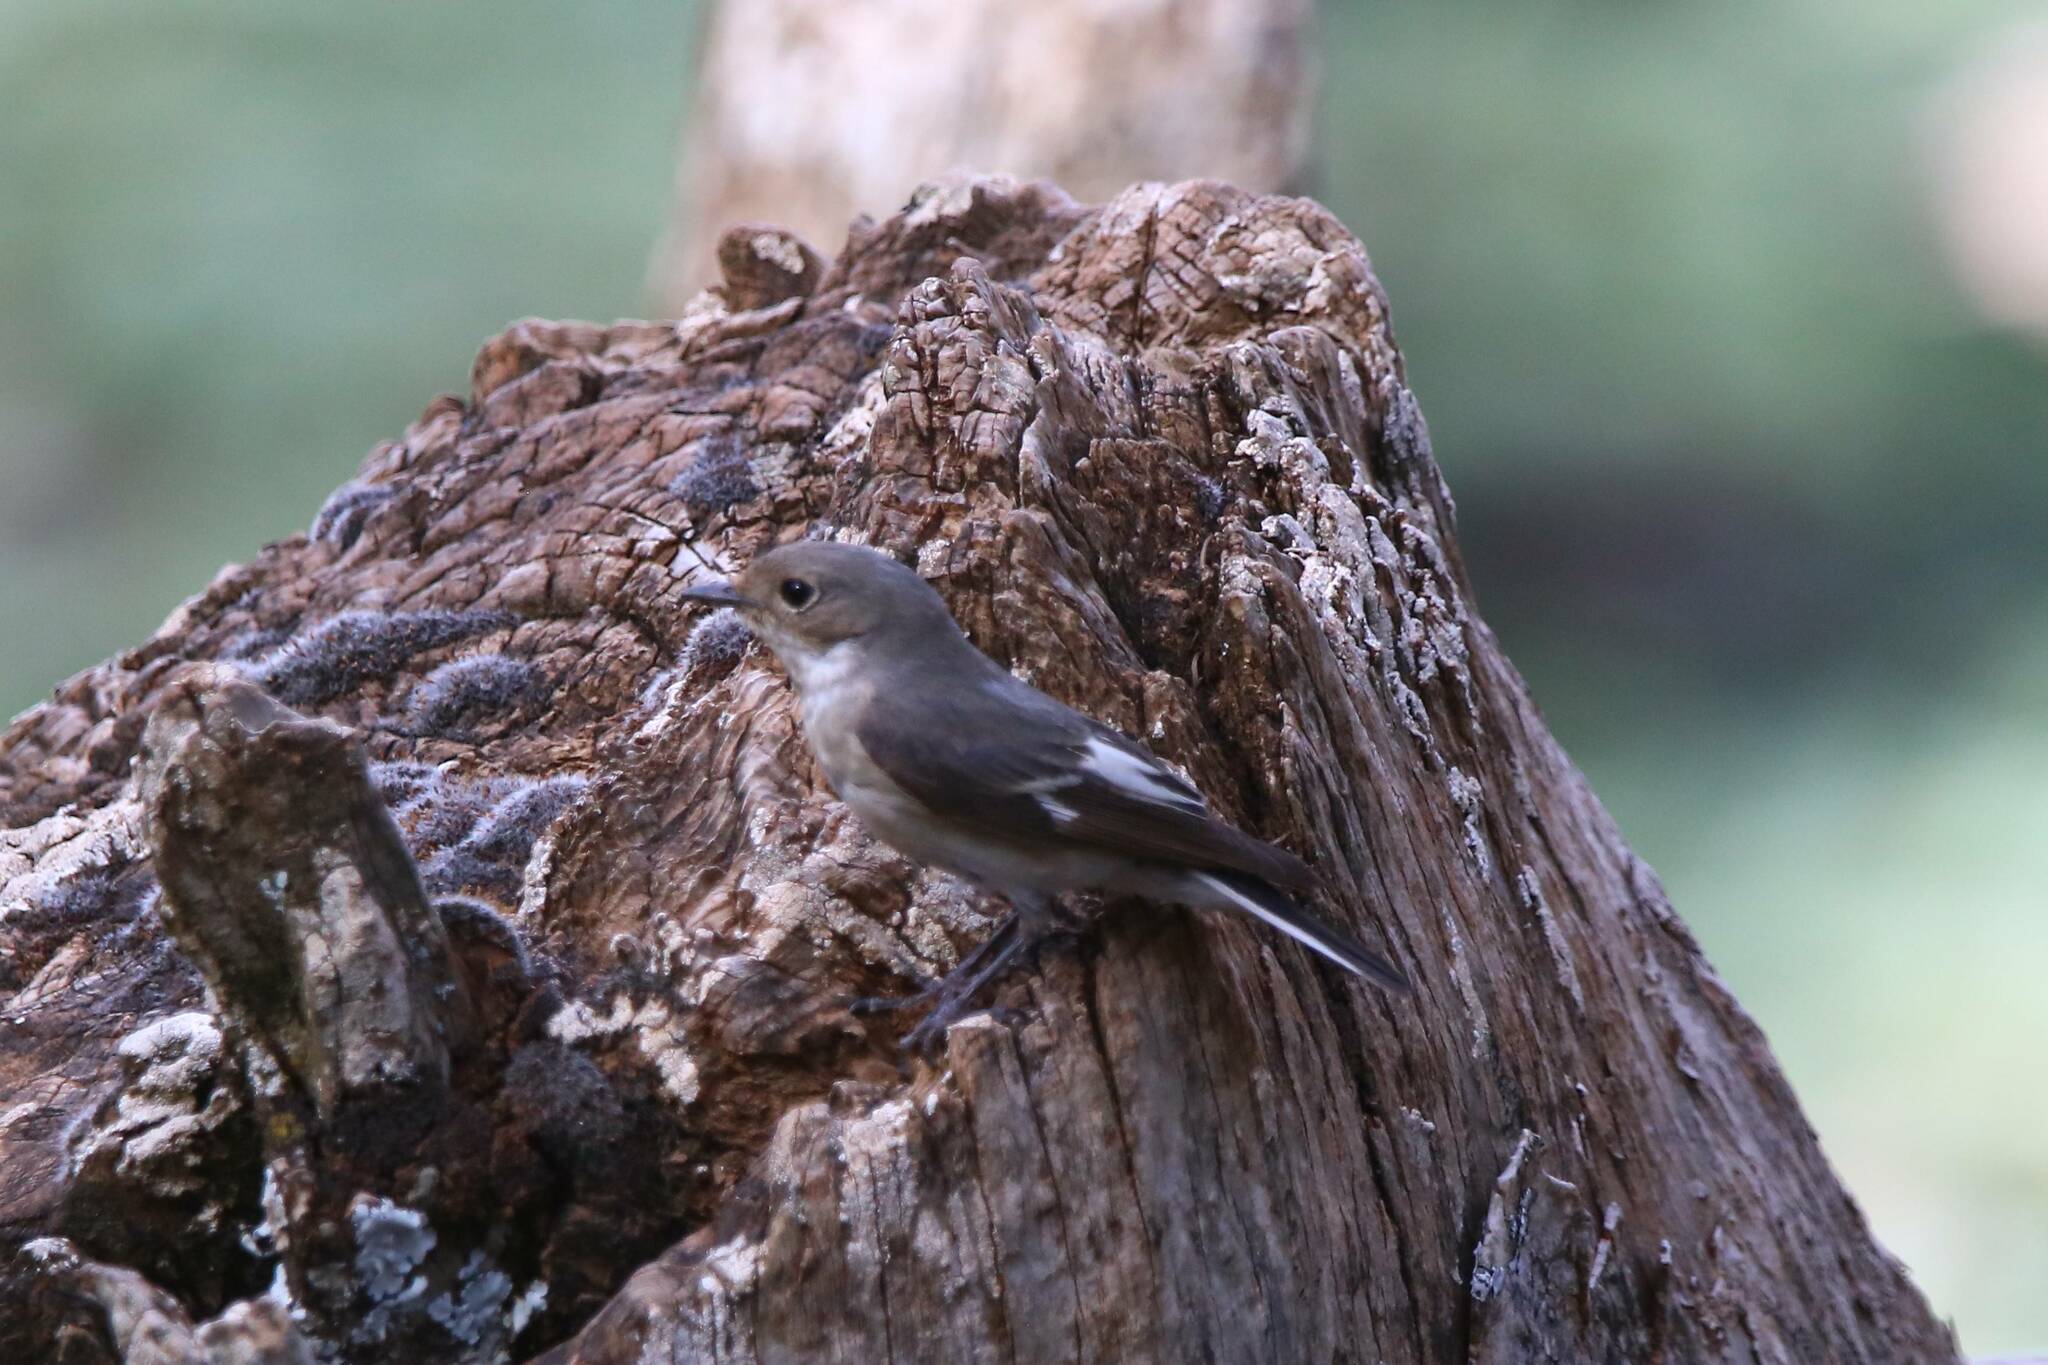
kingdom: Animalia
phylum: Chordata
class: Aves
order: Passeriformes
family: Muscicapidae
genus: Ficedula
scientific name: Ficedula speculigera
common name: Atlas pied flycatcher
